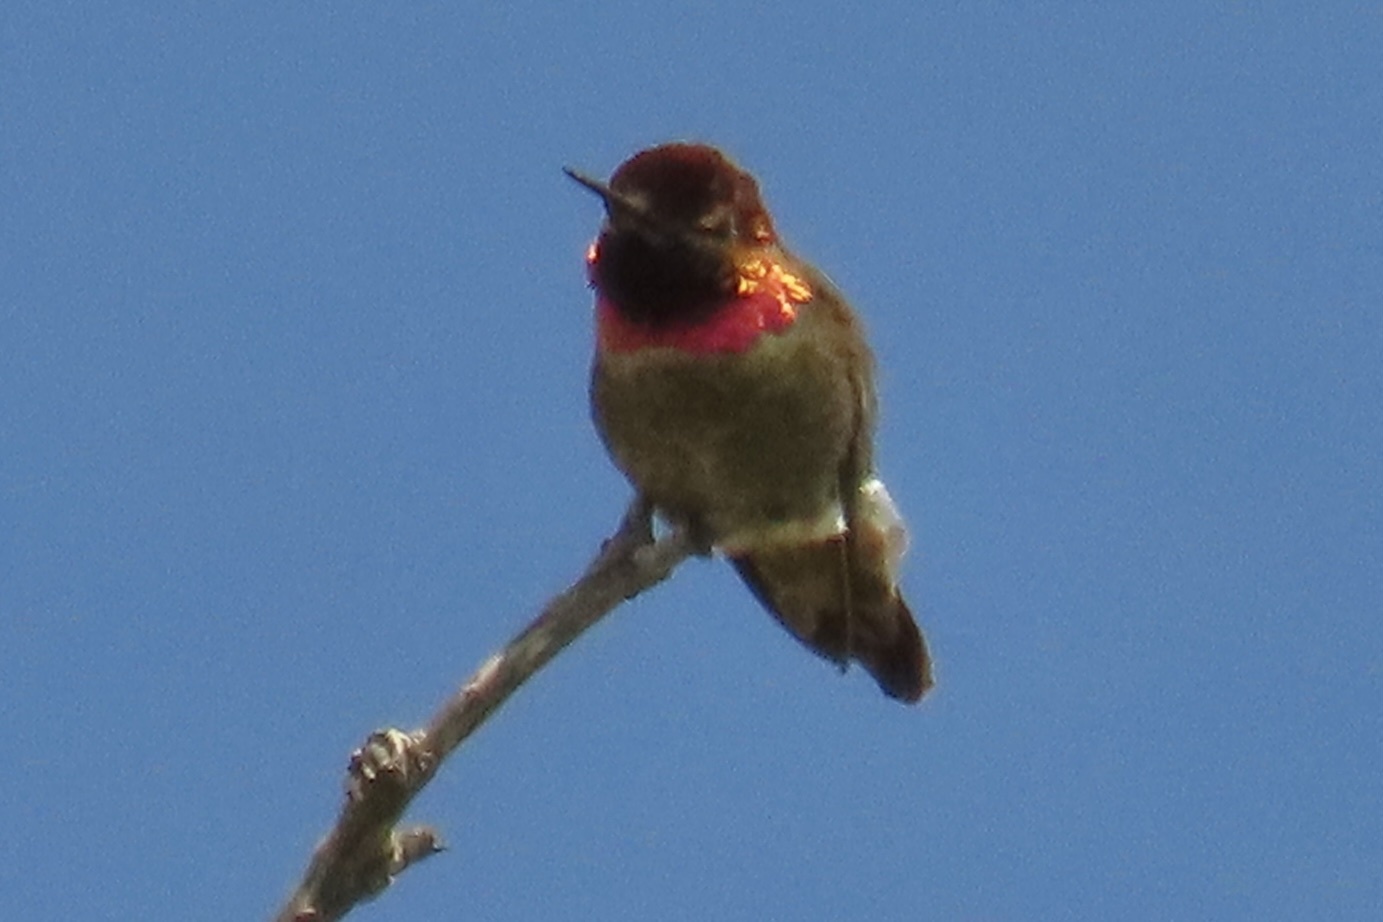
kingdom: Animalia
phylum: Chordata
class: Aves
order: Apodiformes
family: Trochilidae
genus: Calypte
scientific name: Calypte anna
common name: Anna's hummingbird
